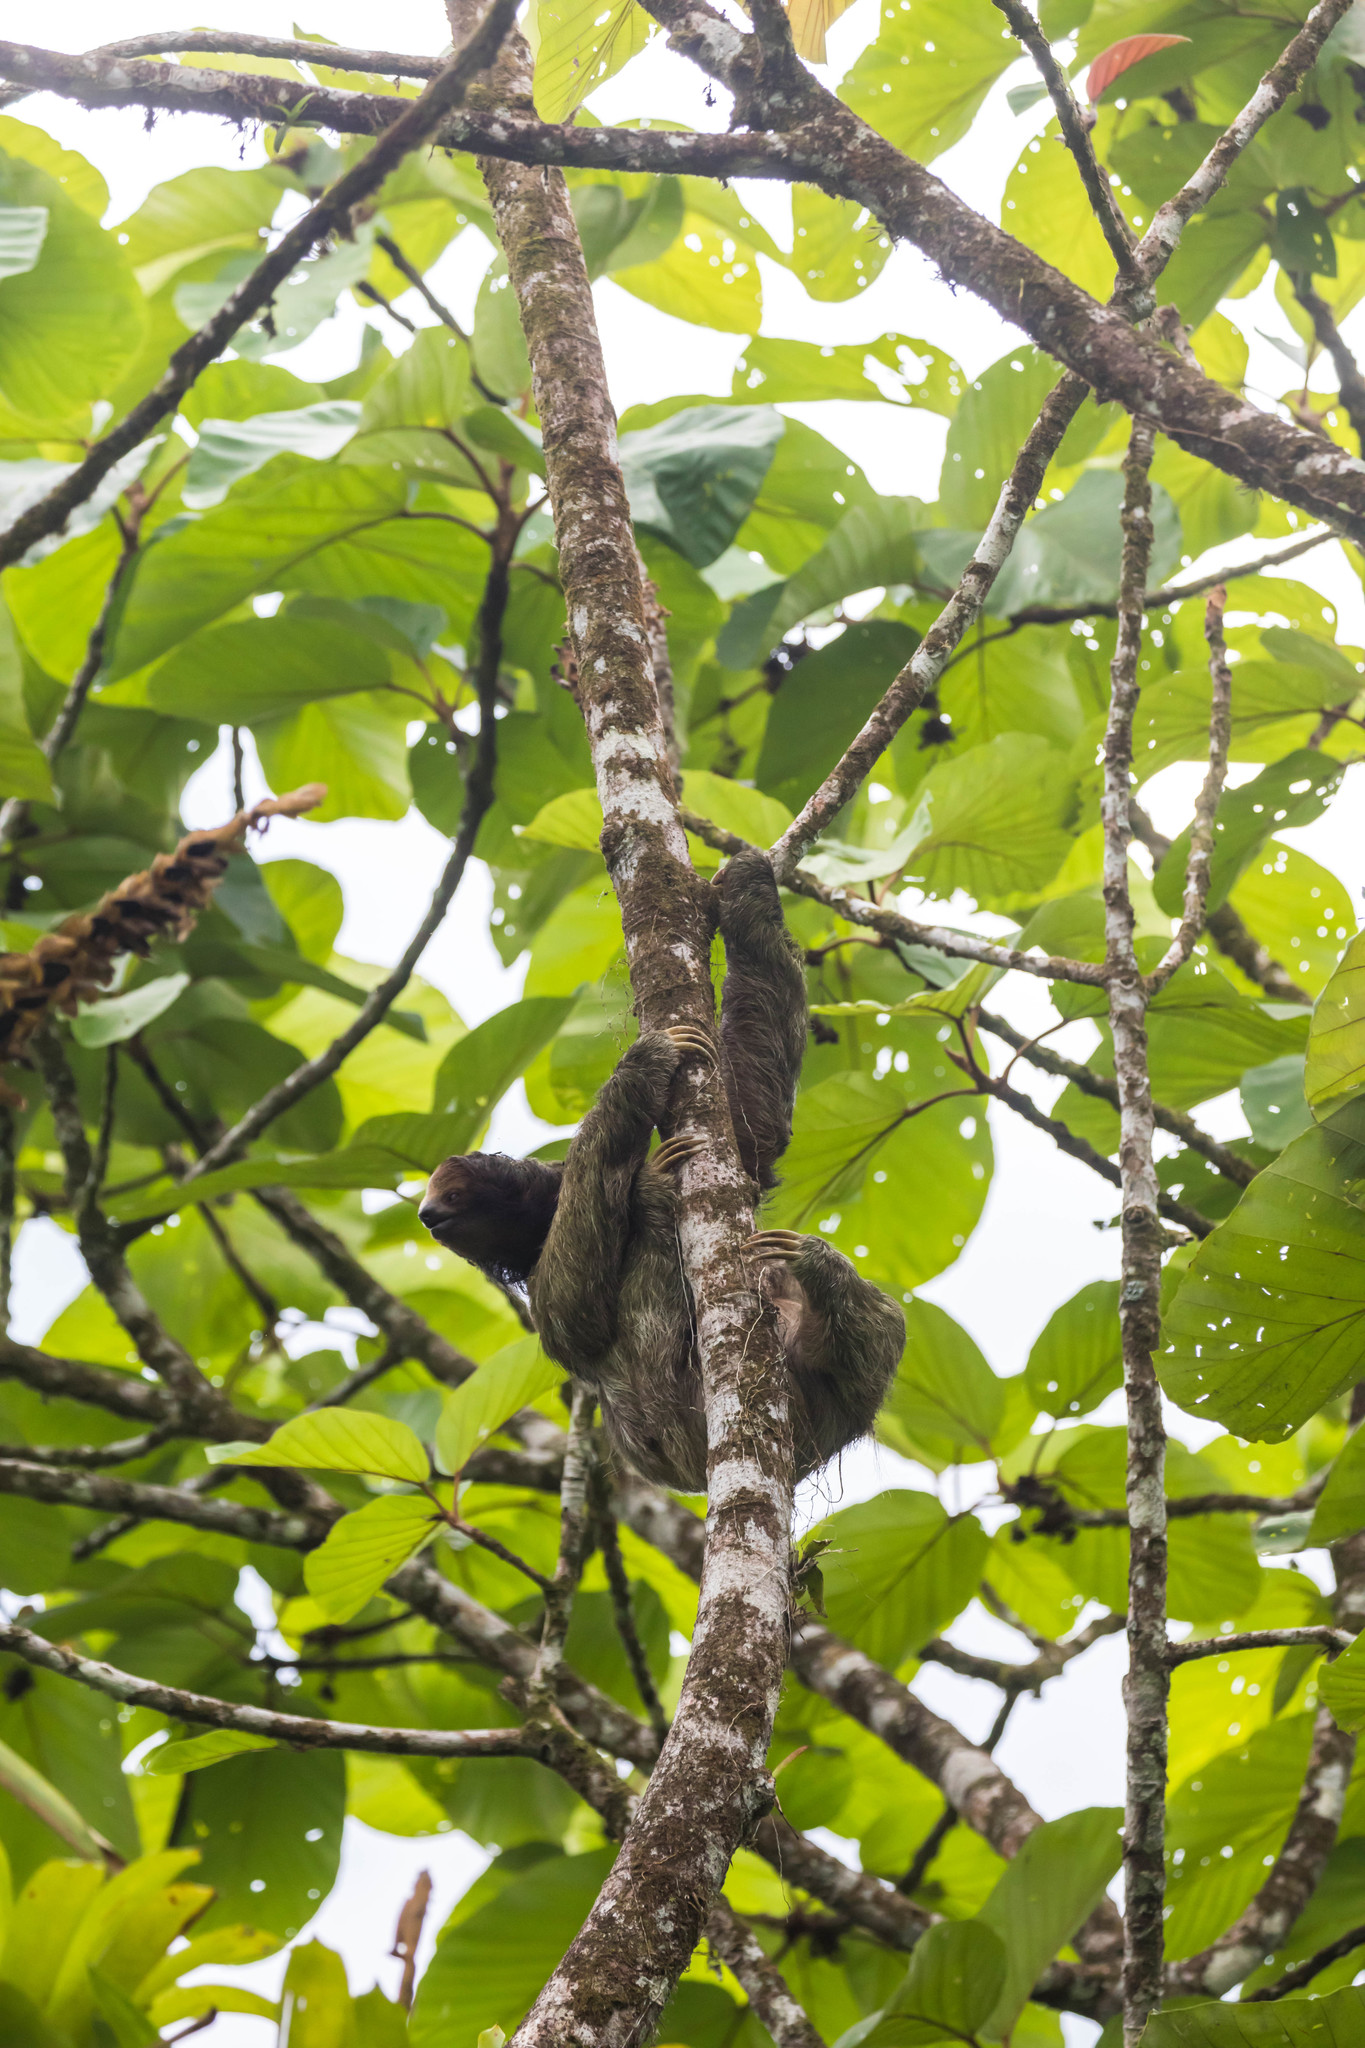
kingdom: Animalia
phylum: Chordata
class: Mammalia
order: Pilosa
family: Bradypodidae
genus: Bradypus
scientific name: Bradypus variegatus
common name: Brown-throated three-toed sloth
